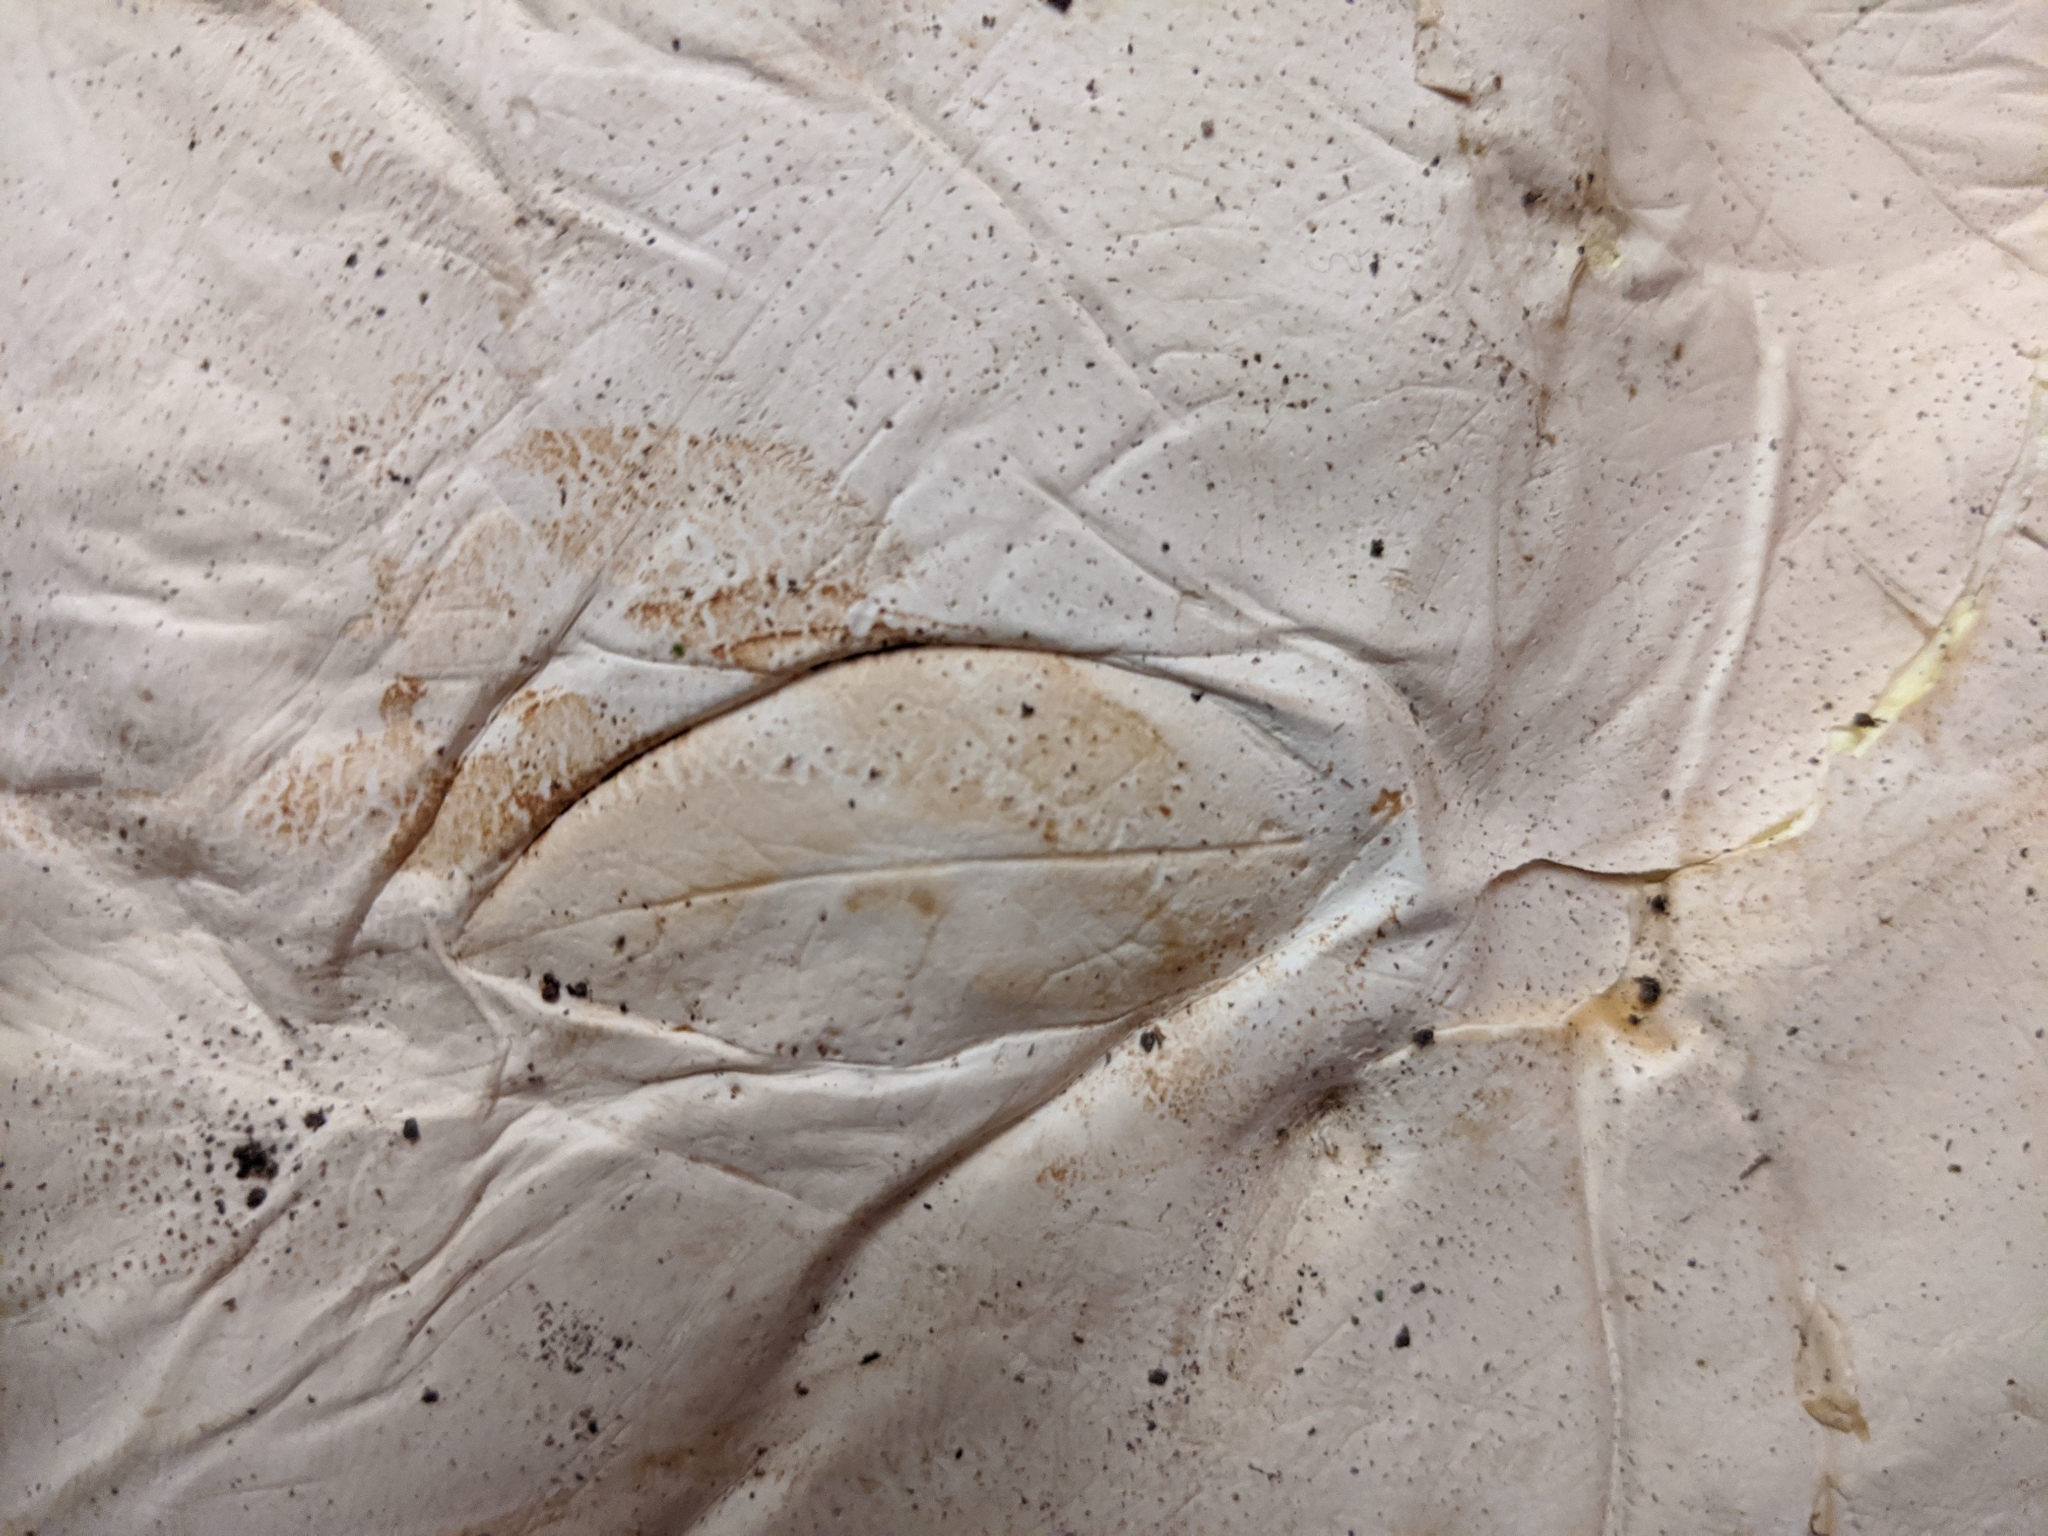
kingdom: Fungi
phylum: Basidiomycota
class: Agaricomycetes
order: Agaricales
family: Lycoperdaceae
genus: Calvatia
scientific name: Calvatia gigantea
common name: Giant puffball
